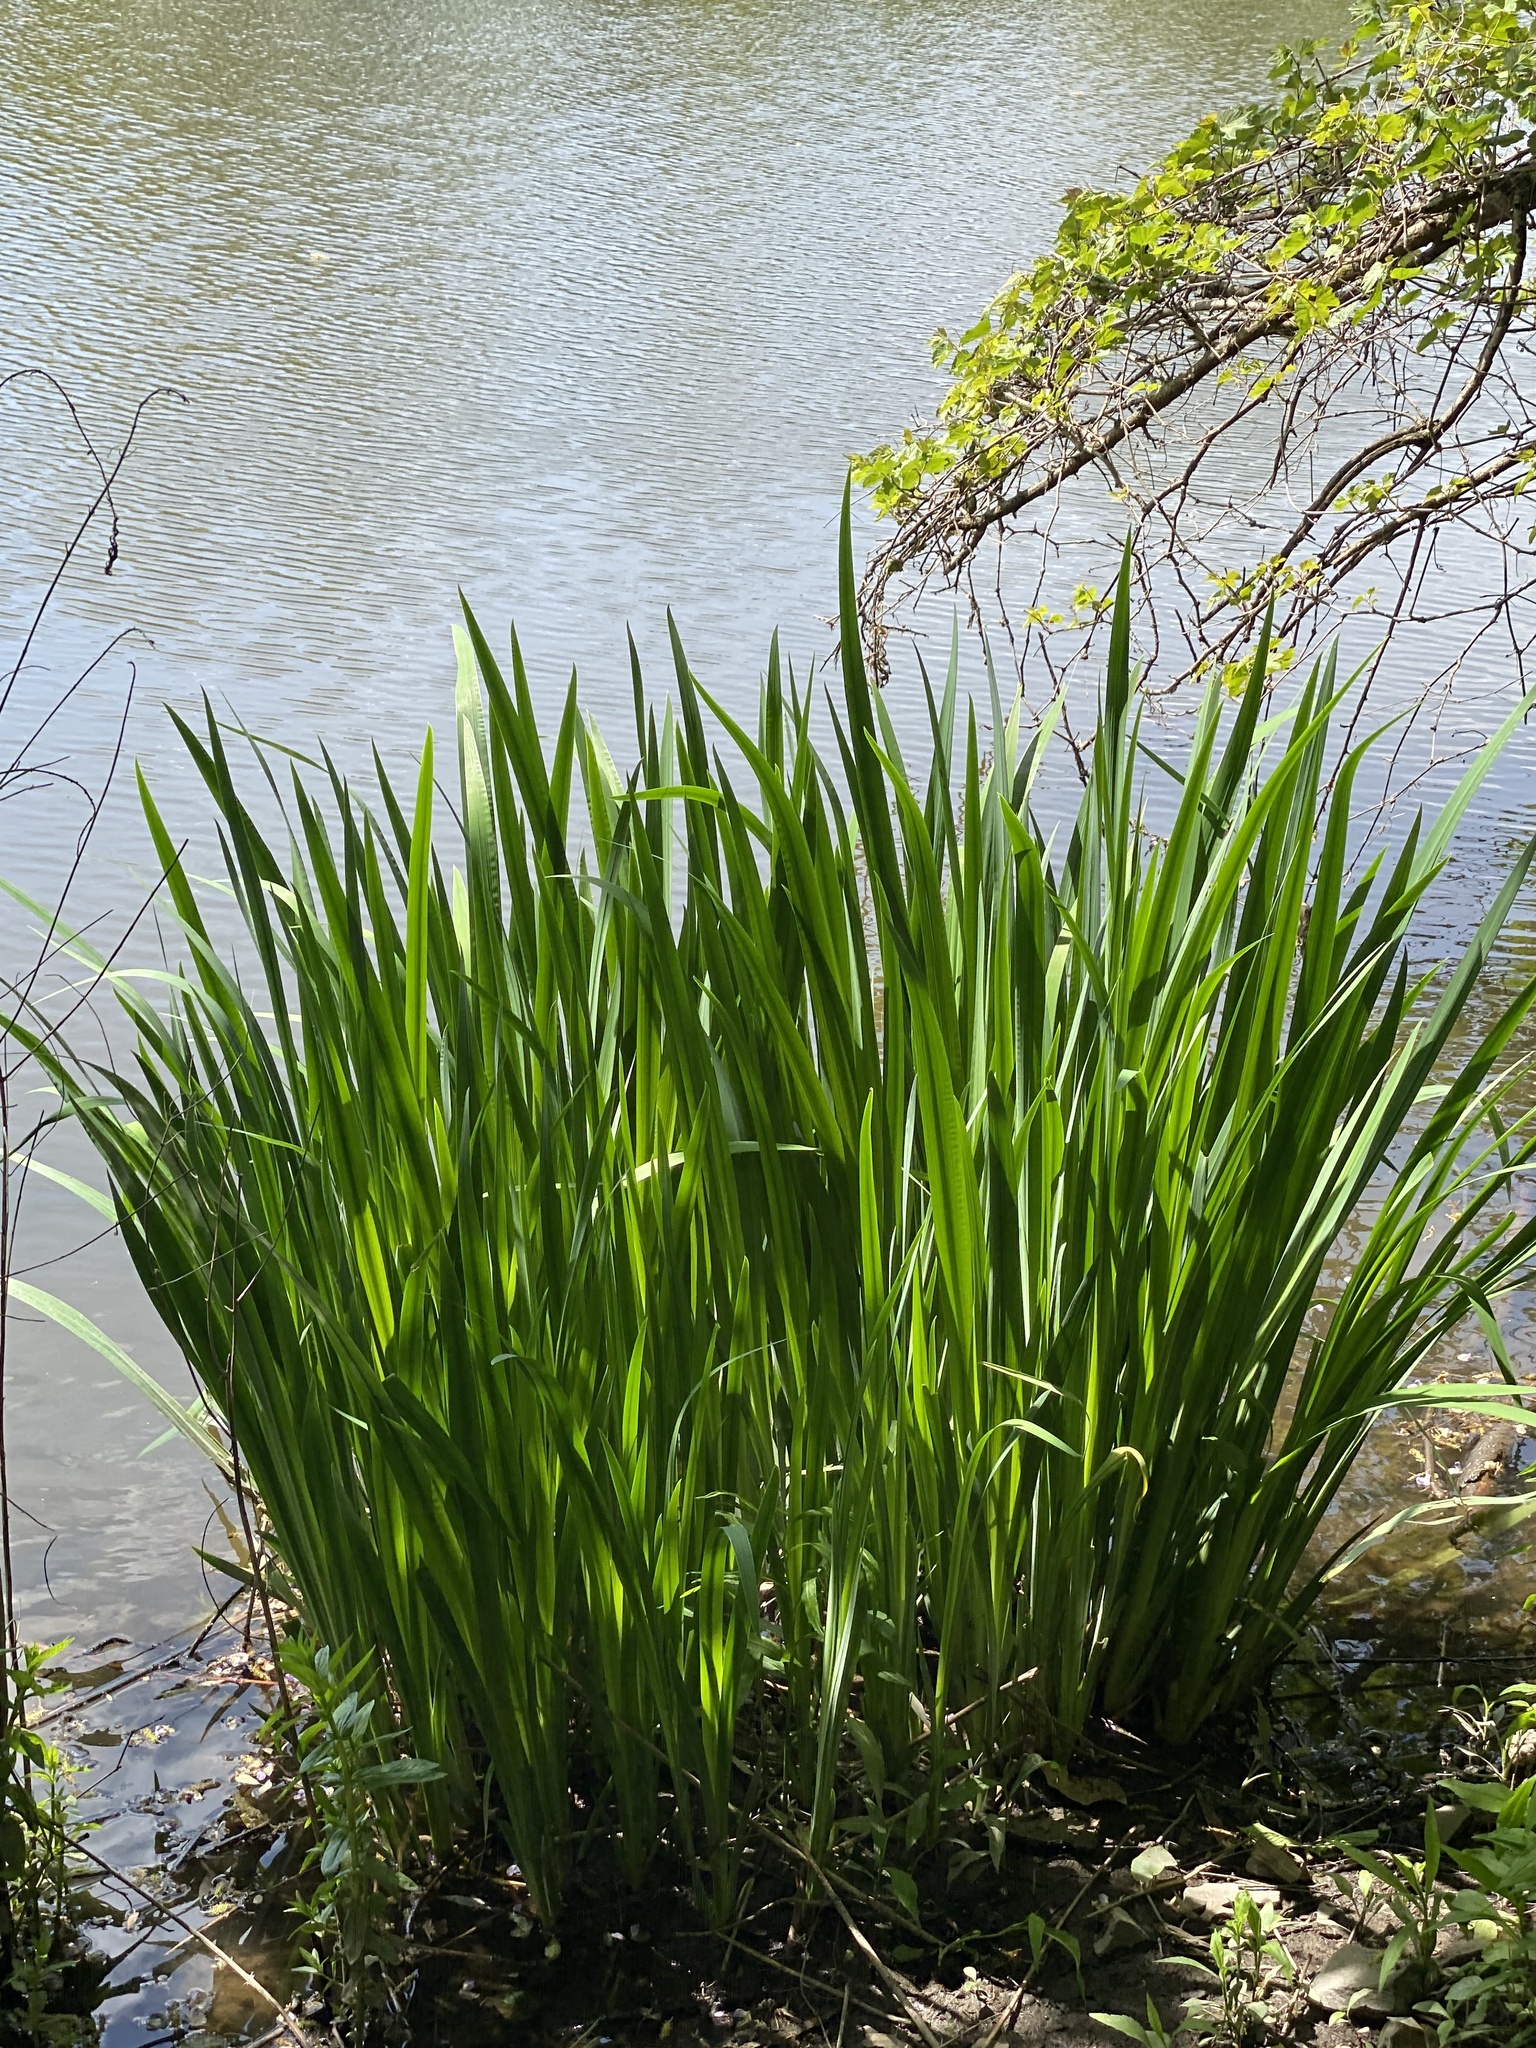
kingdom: Plantae
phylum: Tracheophyta
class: Liliopsida
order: Asparagales
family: Iridaceae
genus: Iris
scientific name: Iris pseudacorus
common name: Yellow flag
